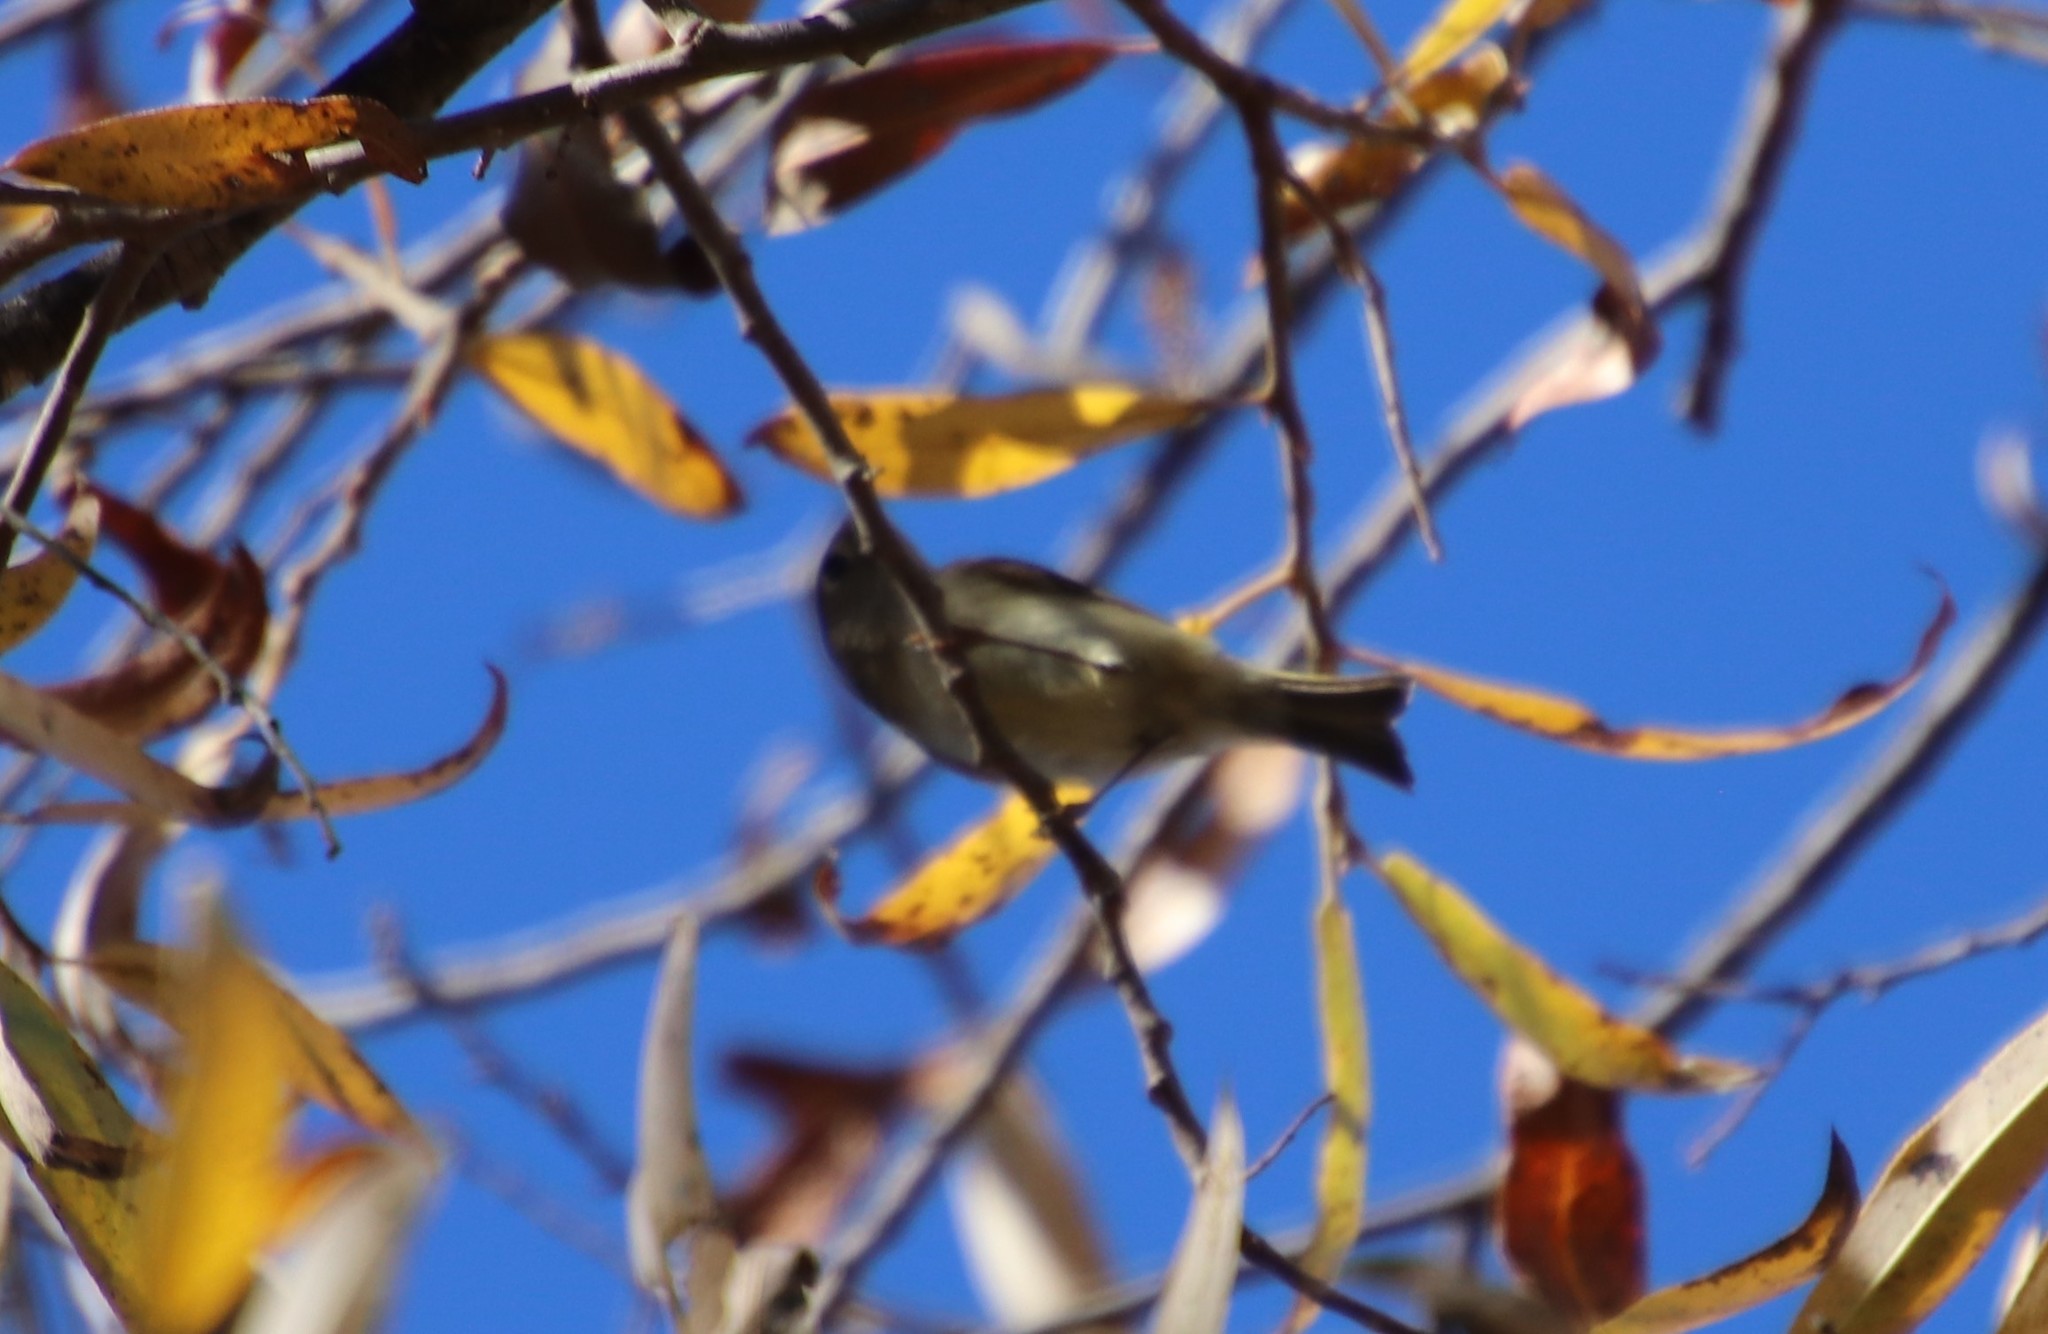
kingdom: Animalia
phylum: Chordata
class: Aves
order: Passeriformes
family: Regulidae
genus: Regulus
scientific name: Regulus calendula
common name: Ruby-crowned kinglet
